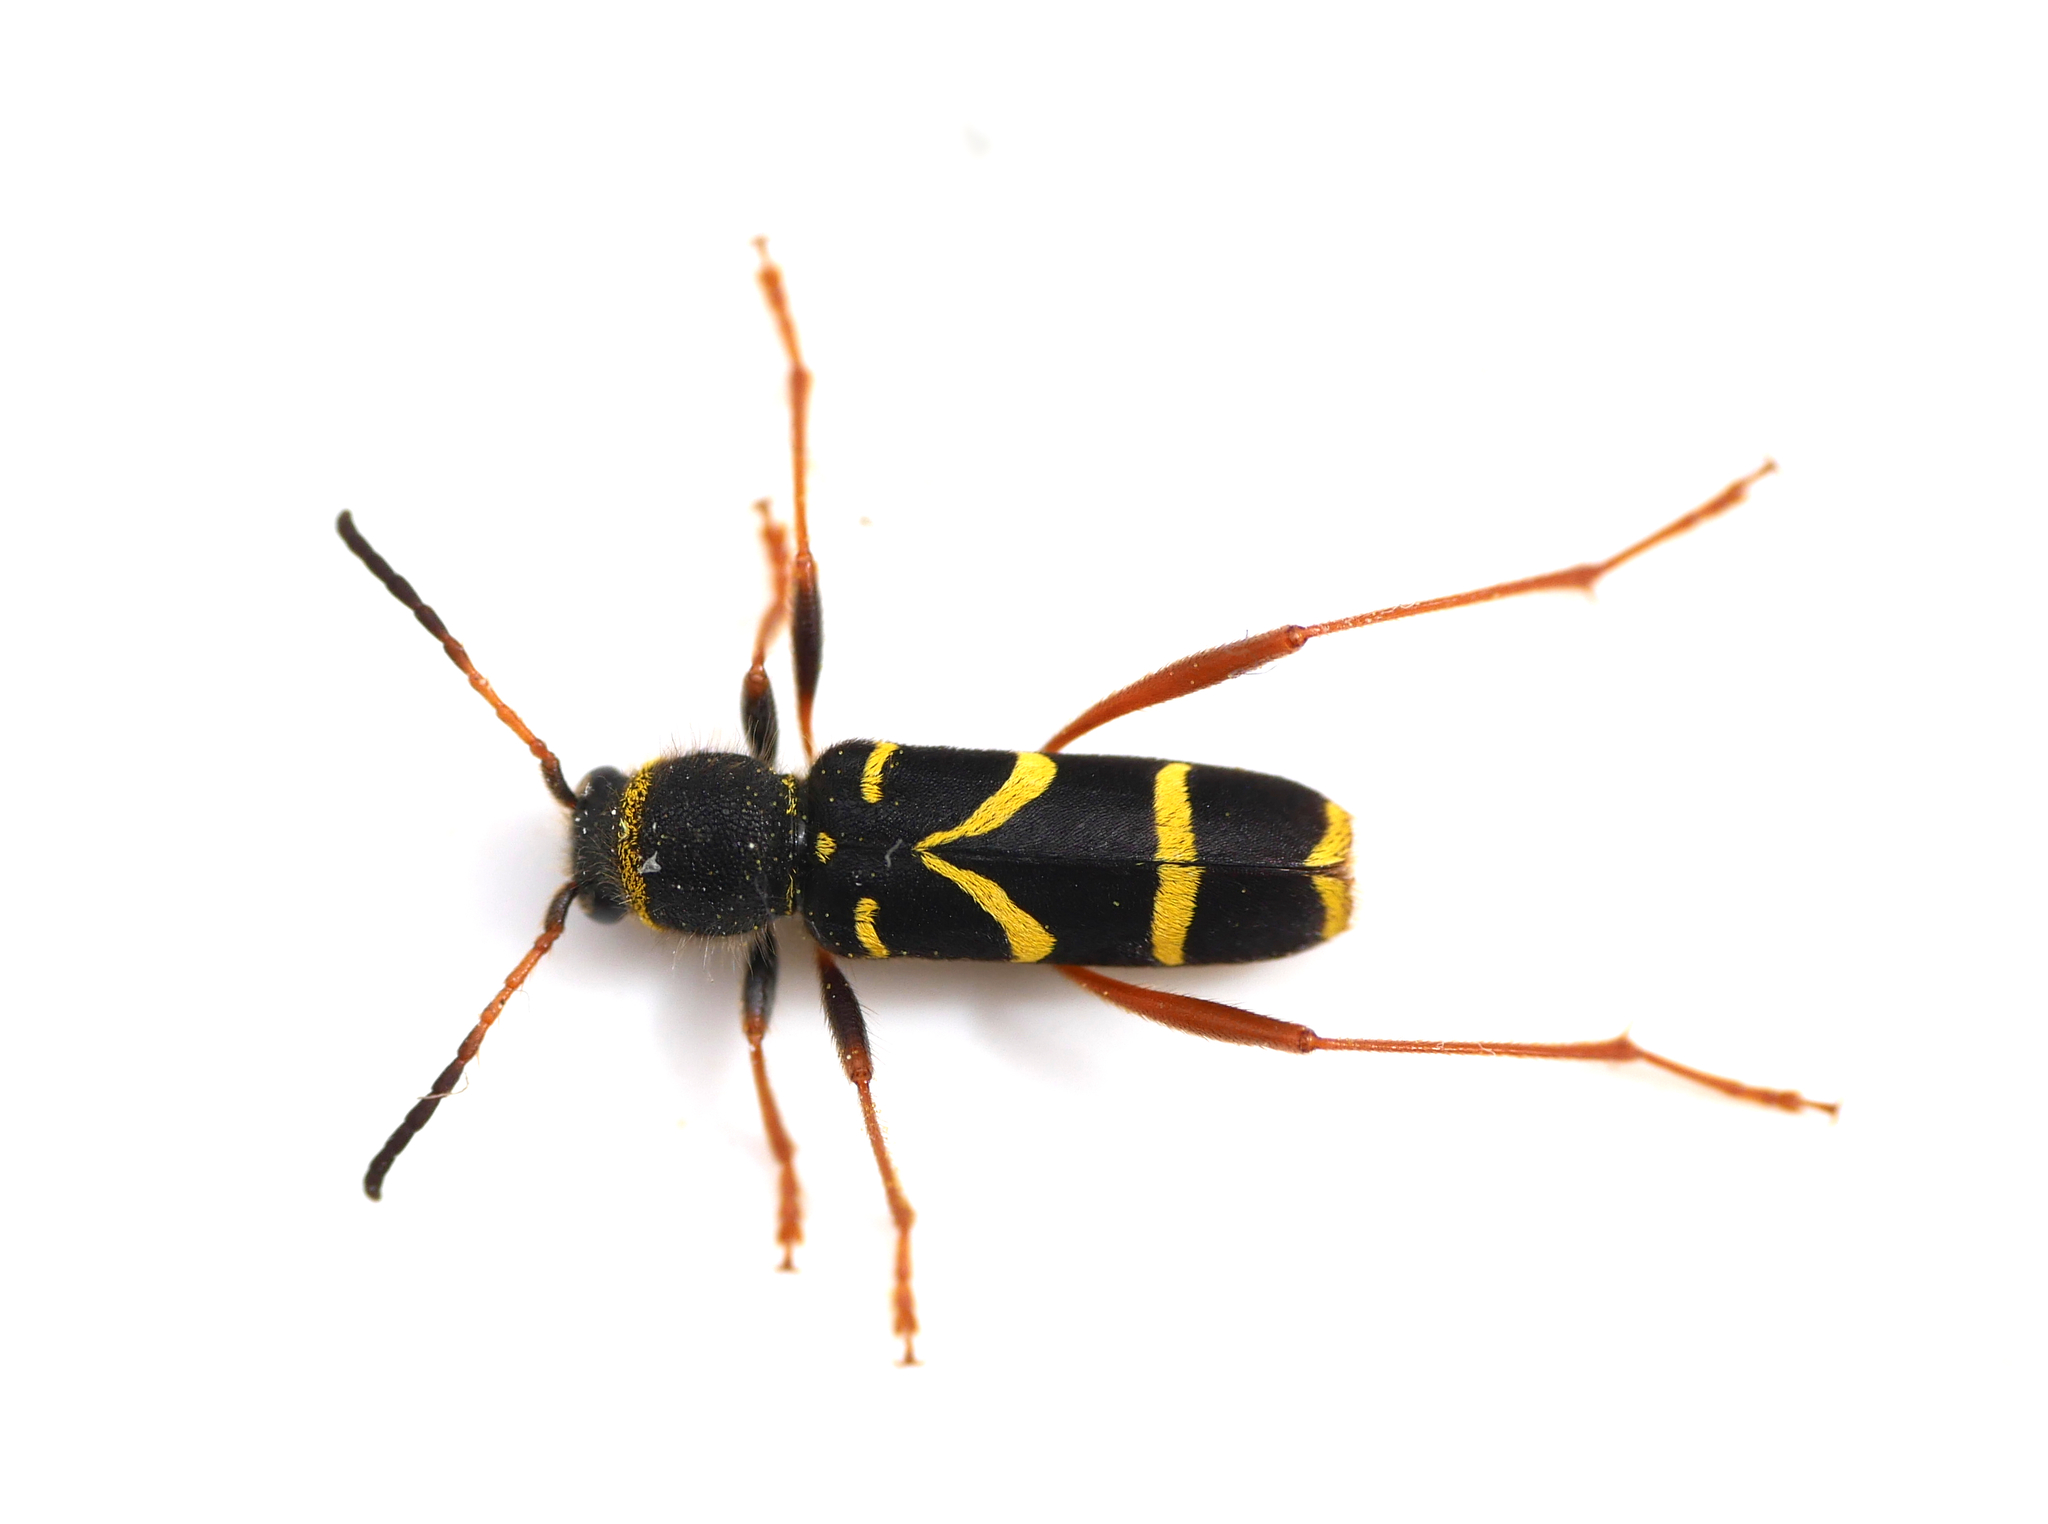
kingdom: Animalia
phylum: Arthropoda
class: Insecta
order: Coleoptera
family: Cerambycidae
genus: Clytus
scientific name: Clytus arietis
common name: Wasp beetle
